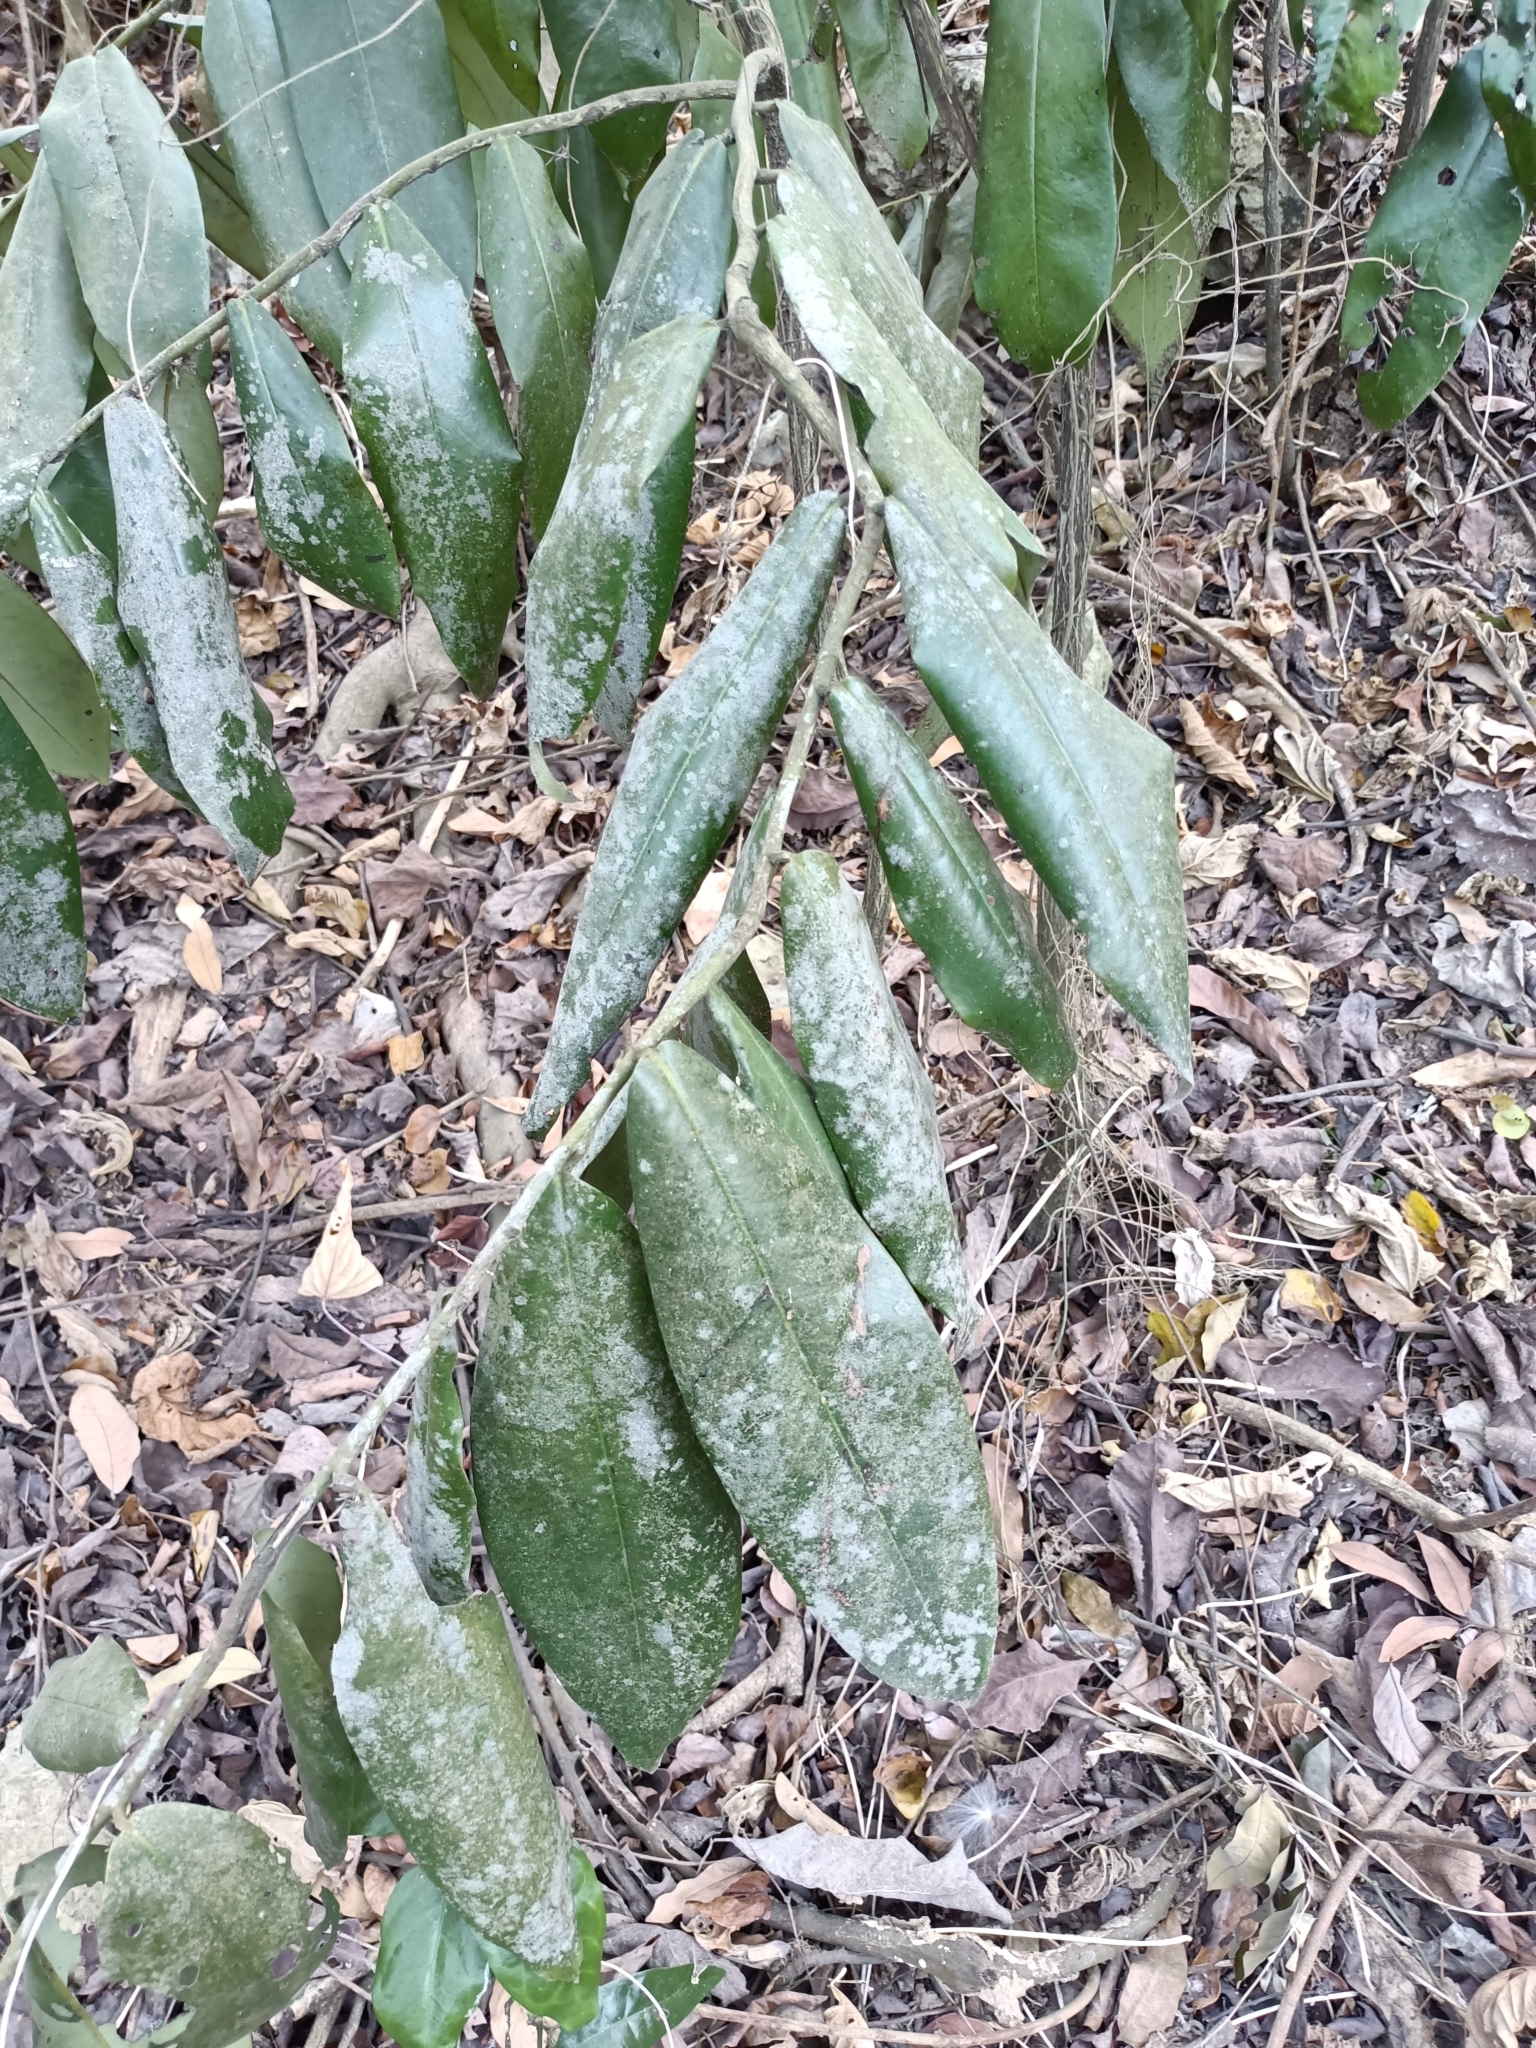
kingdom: Plantae
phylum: Tracheophyta
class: Magnoliopsida
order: Ericales
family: Ebenaceae
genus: Diospyros
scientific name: Diospyros blancoi
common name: Mabola-tree
